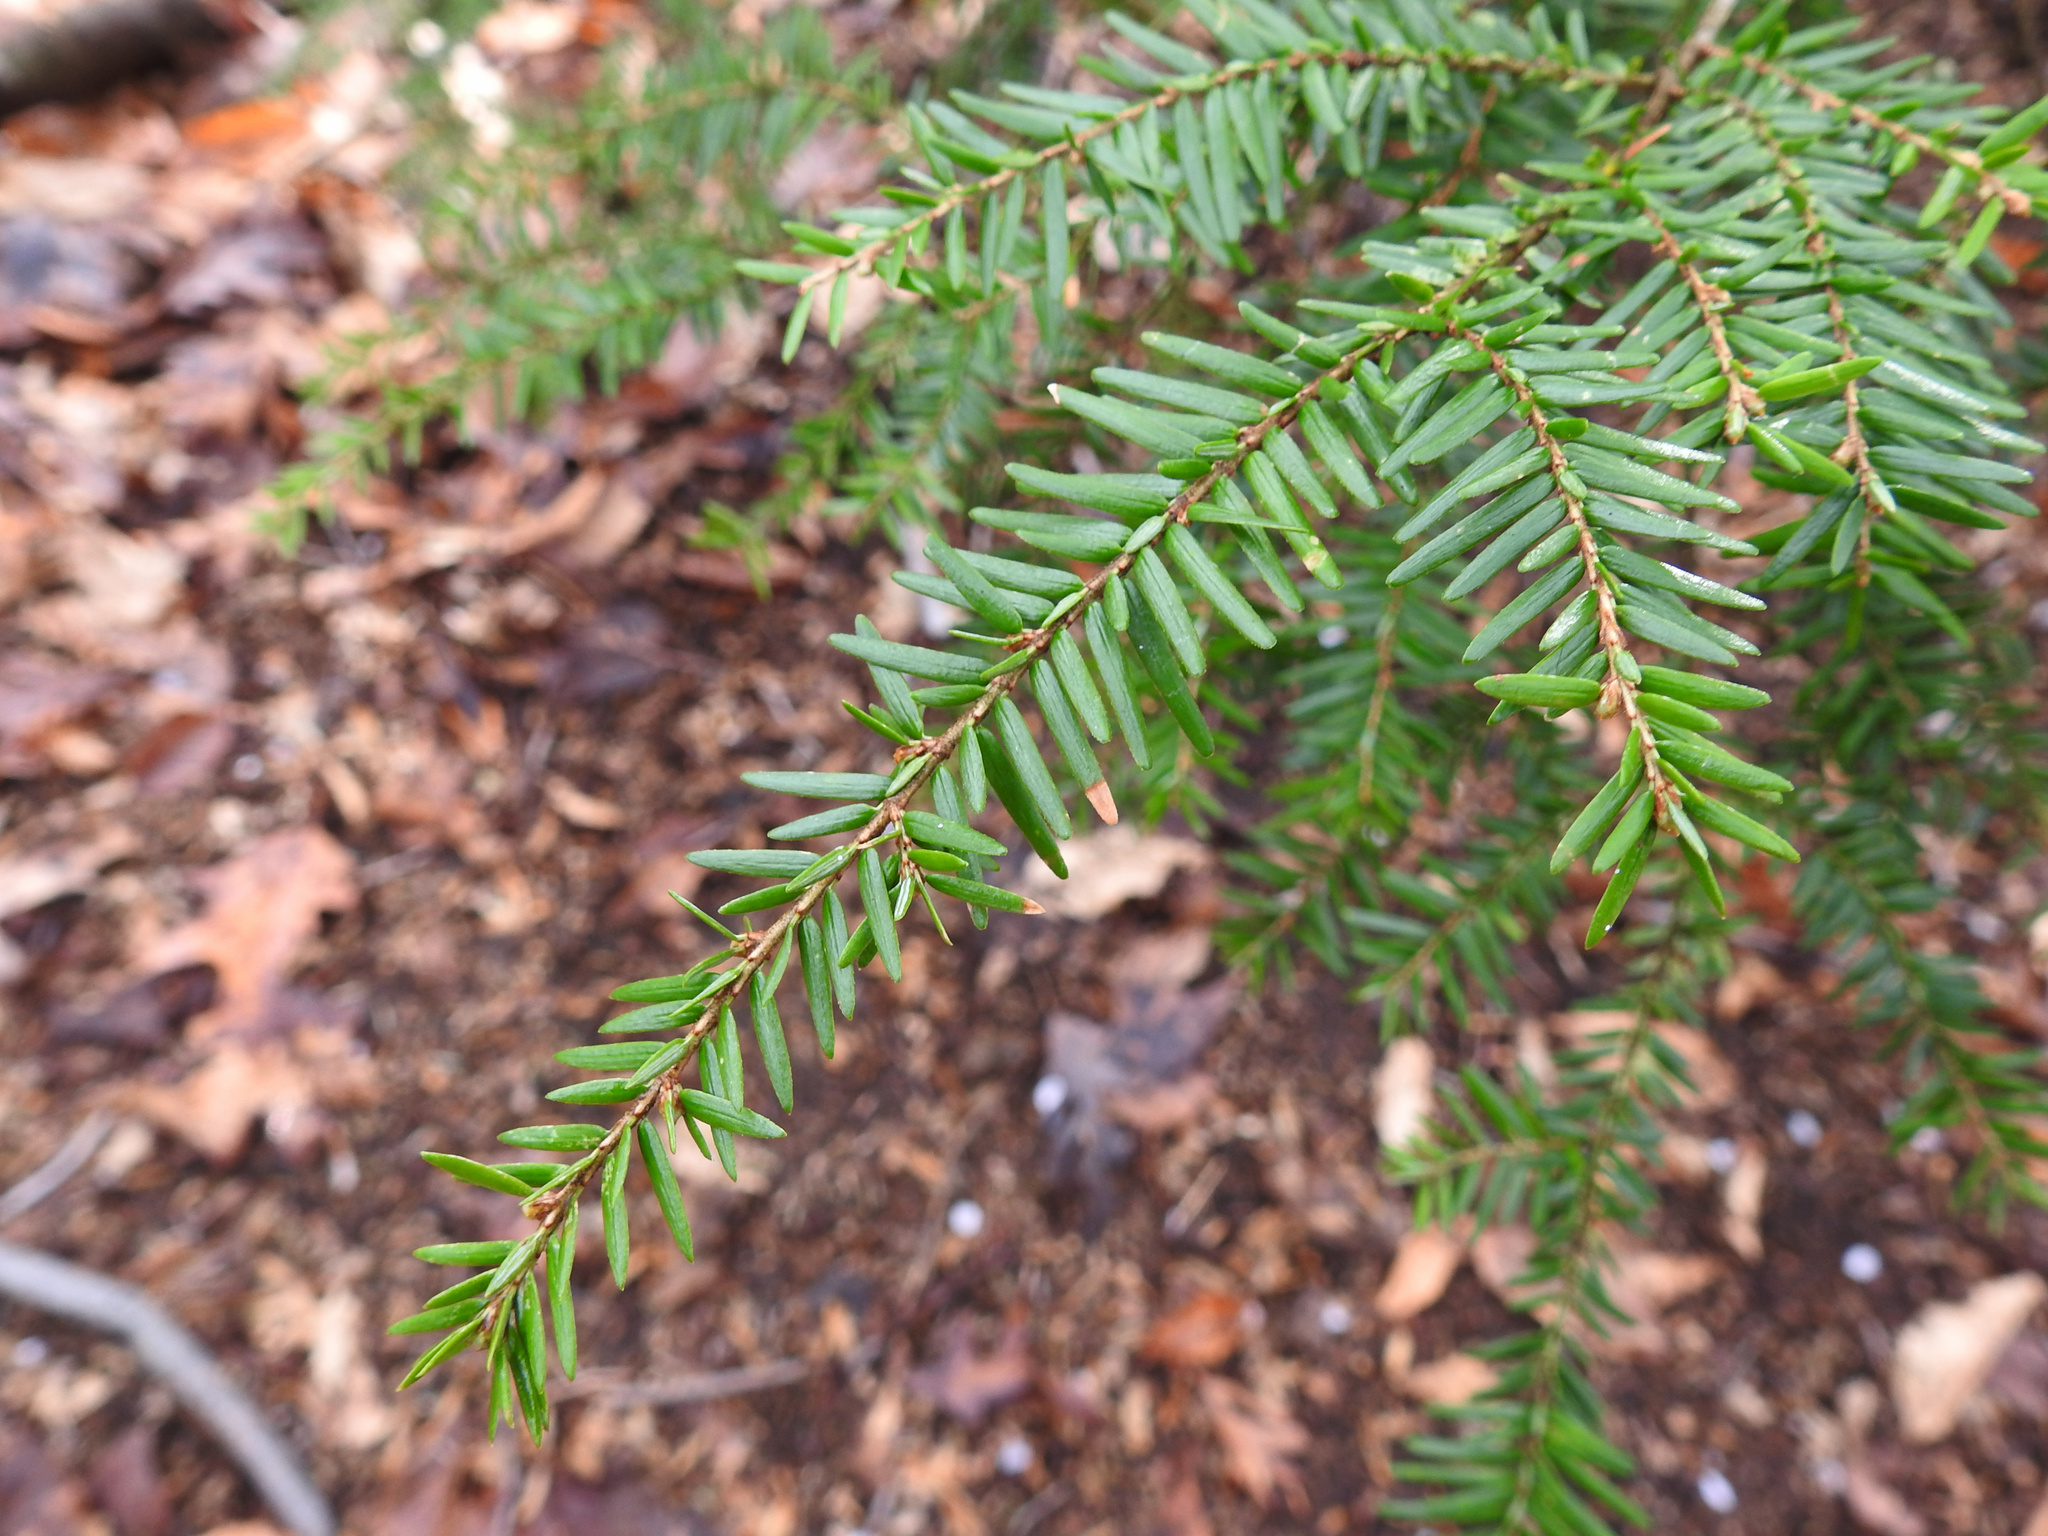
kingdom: Plantae
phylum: Tracheophyta
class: Pinopsida
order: Pinales
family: Pinaceae
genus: Tsuga
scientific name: Tsuga canadensis
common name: Eastern hemlock
